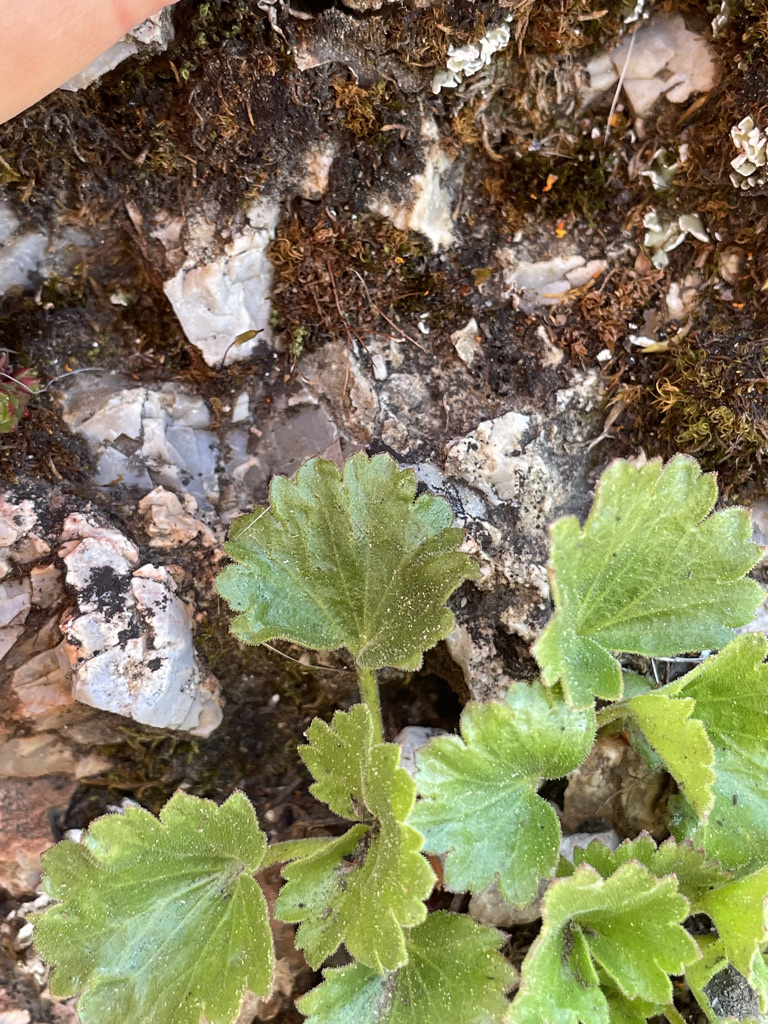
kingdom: Plantae
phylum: Tracheophyta
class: Magnoliopsida
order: Saxifragales
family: Saxifragaceae
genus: Telesonix
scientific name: Telesonix heucheriformis
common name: Alumroot brookfoam
